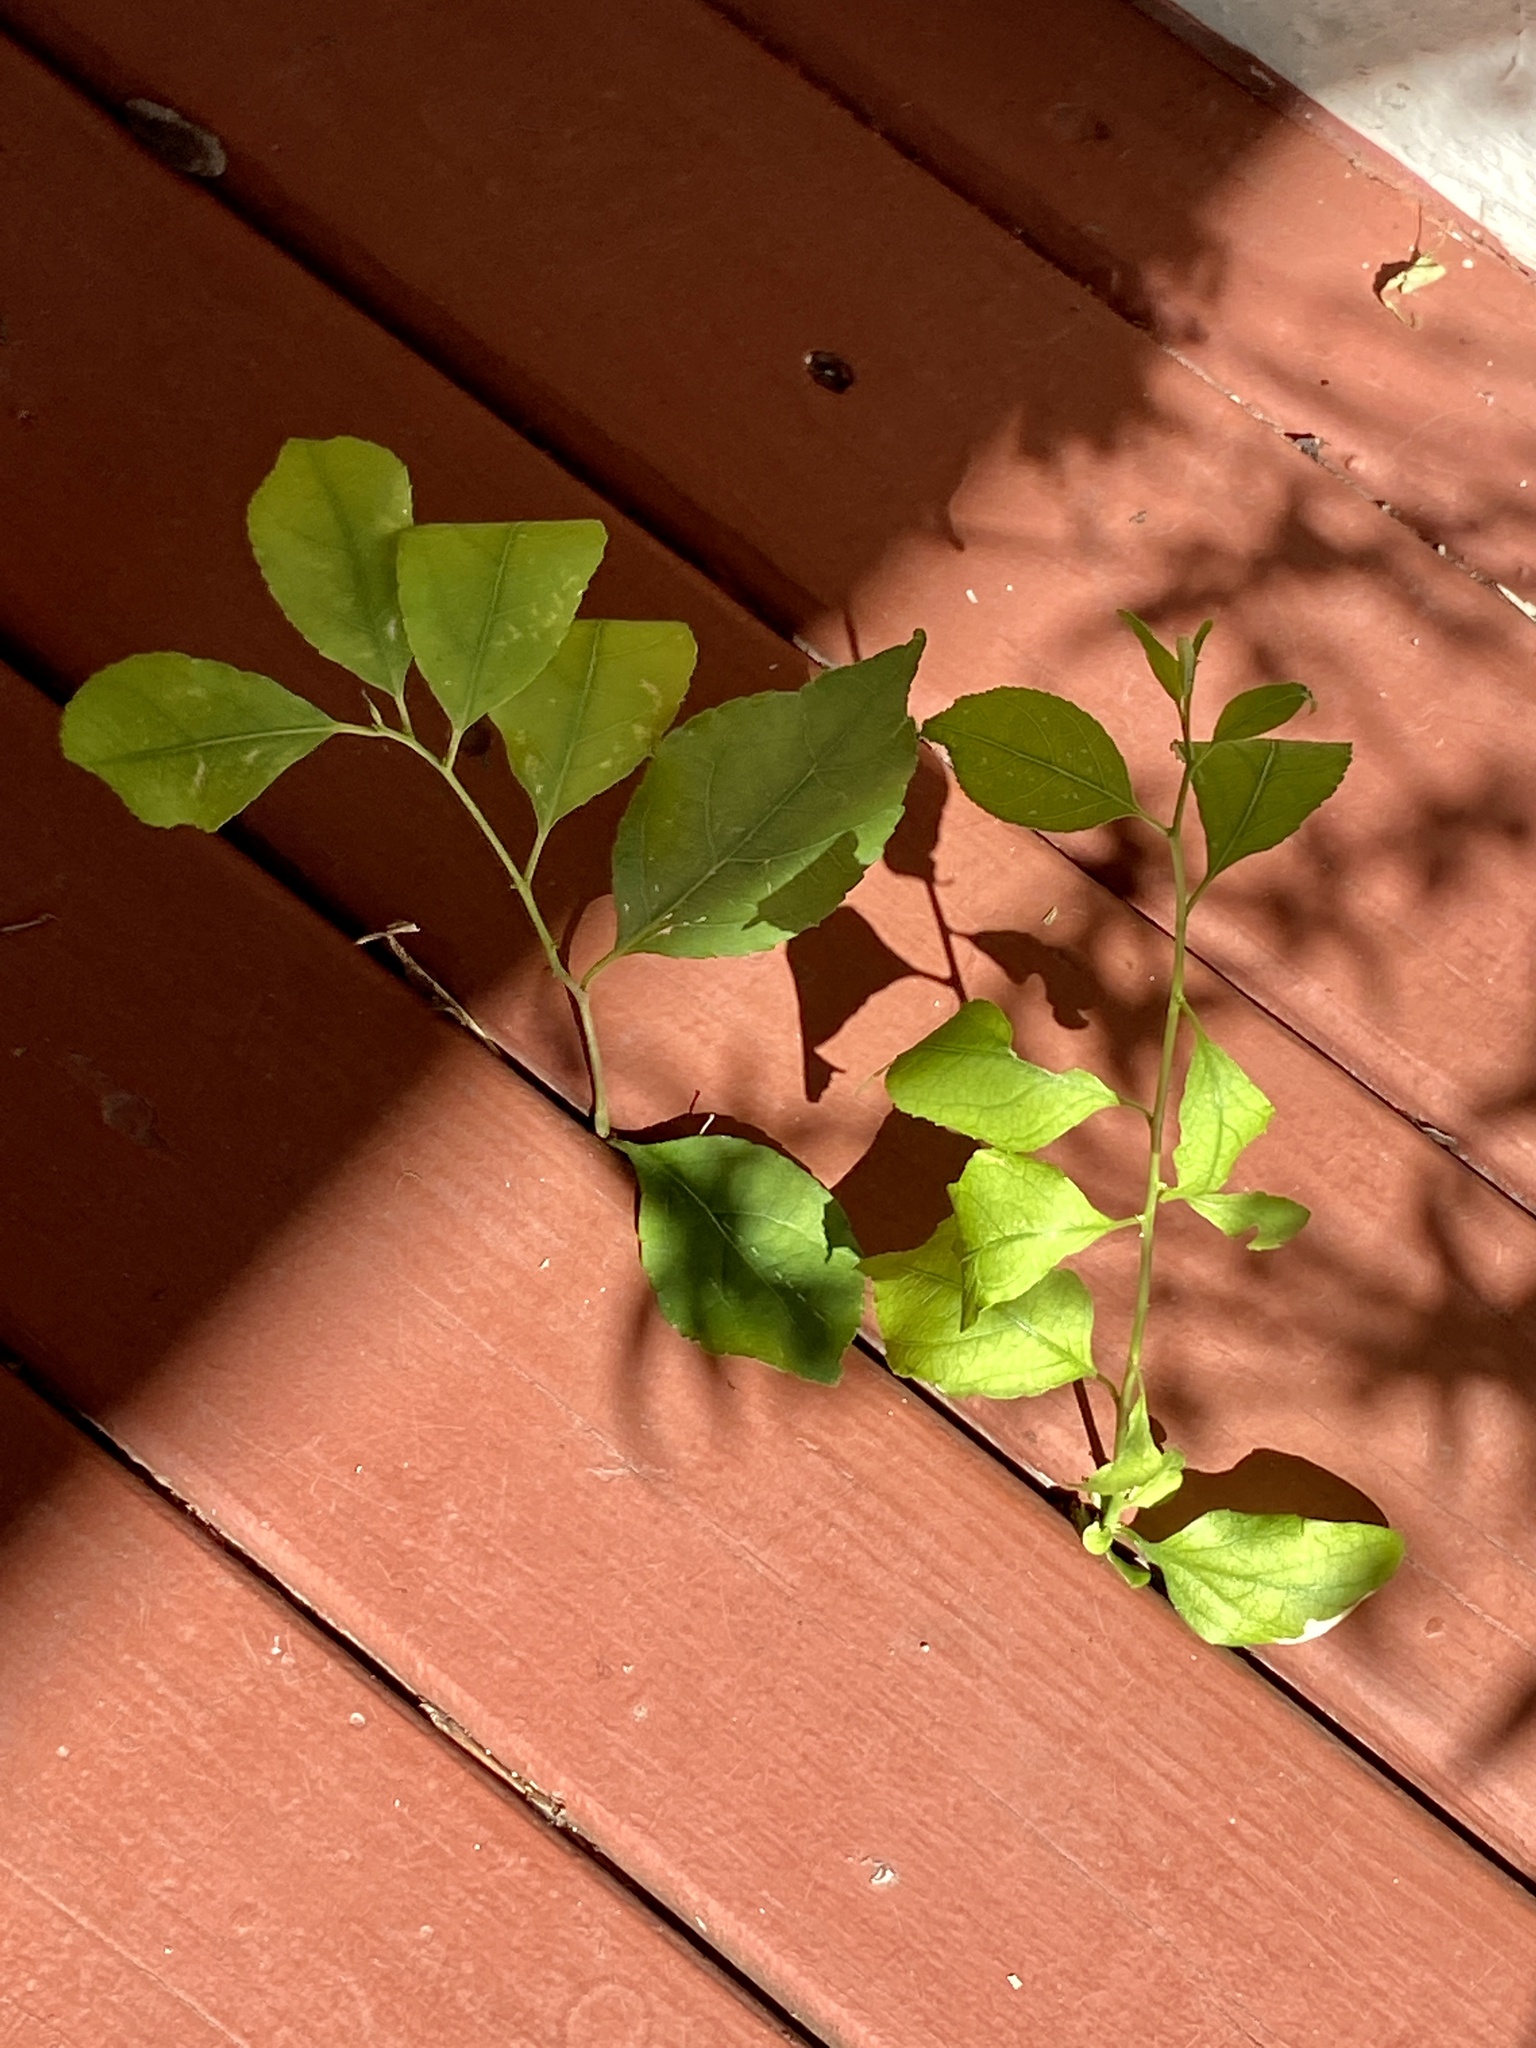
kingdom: Plantae
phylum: Tracheophyta
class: Magnoliopsida
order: Celastrales
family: Celastraceae
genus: Celastrus
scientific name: Celastrus orbiculatus
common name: Oriental bittersweet
